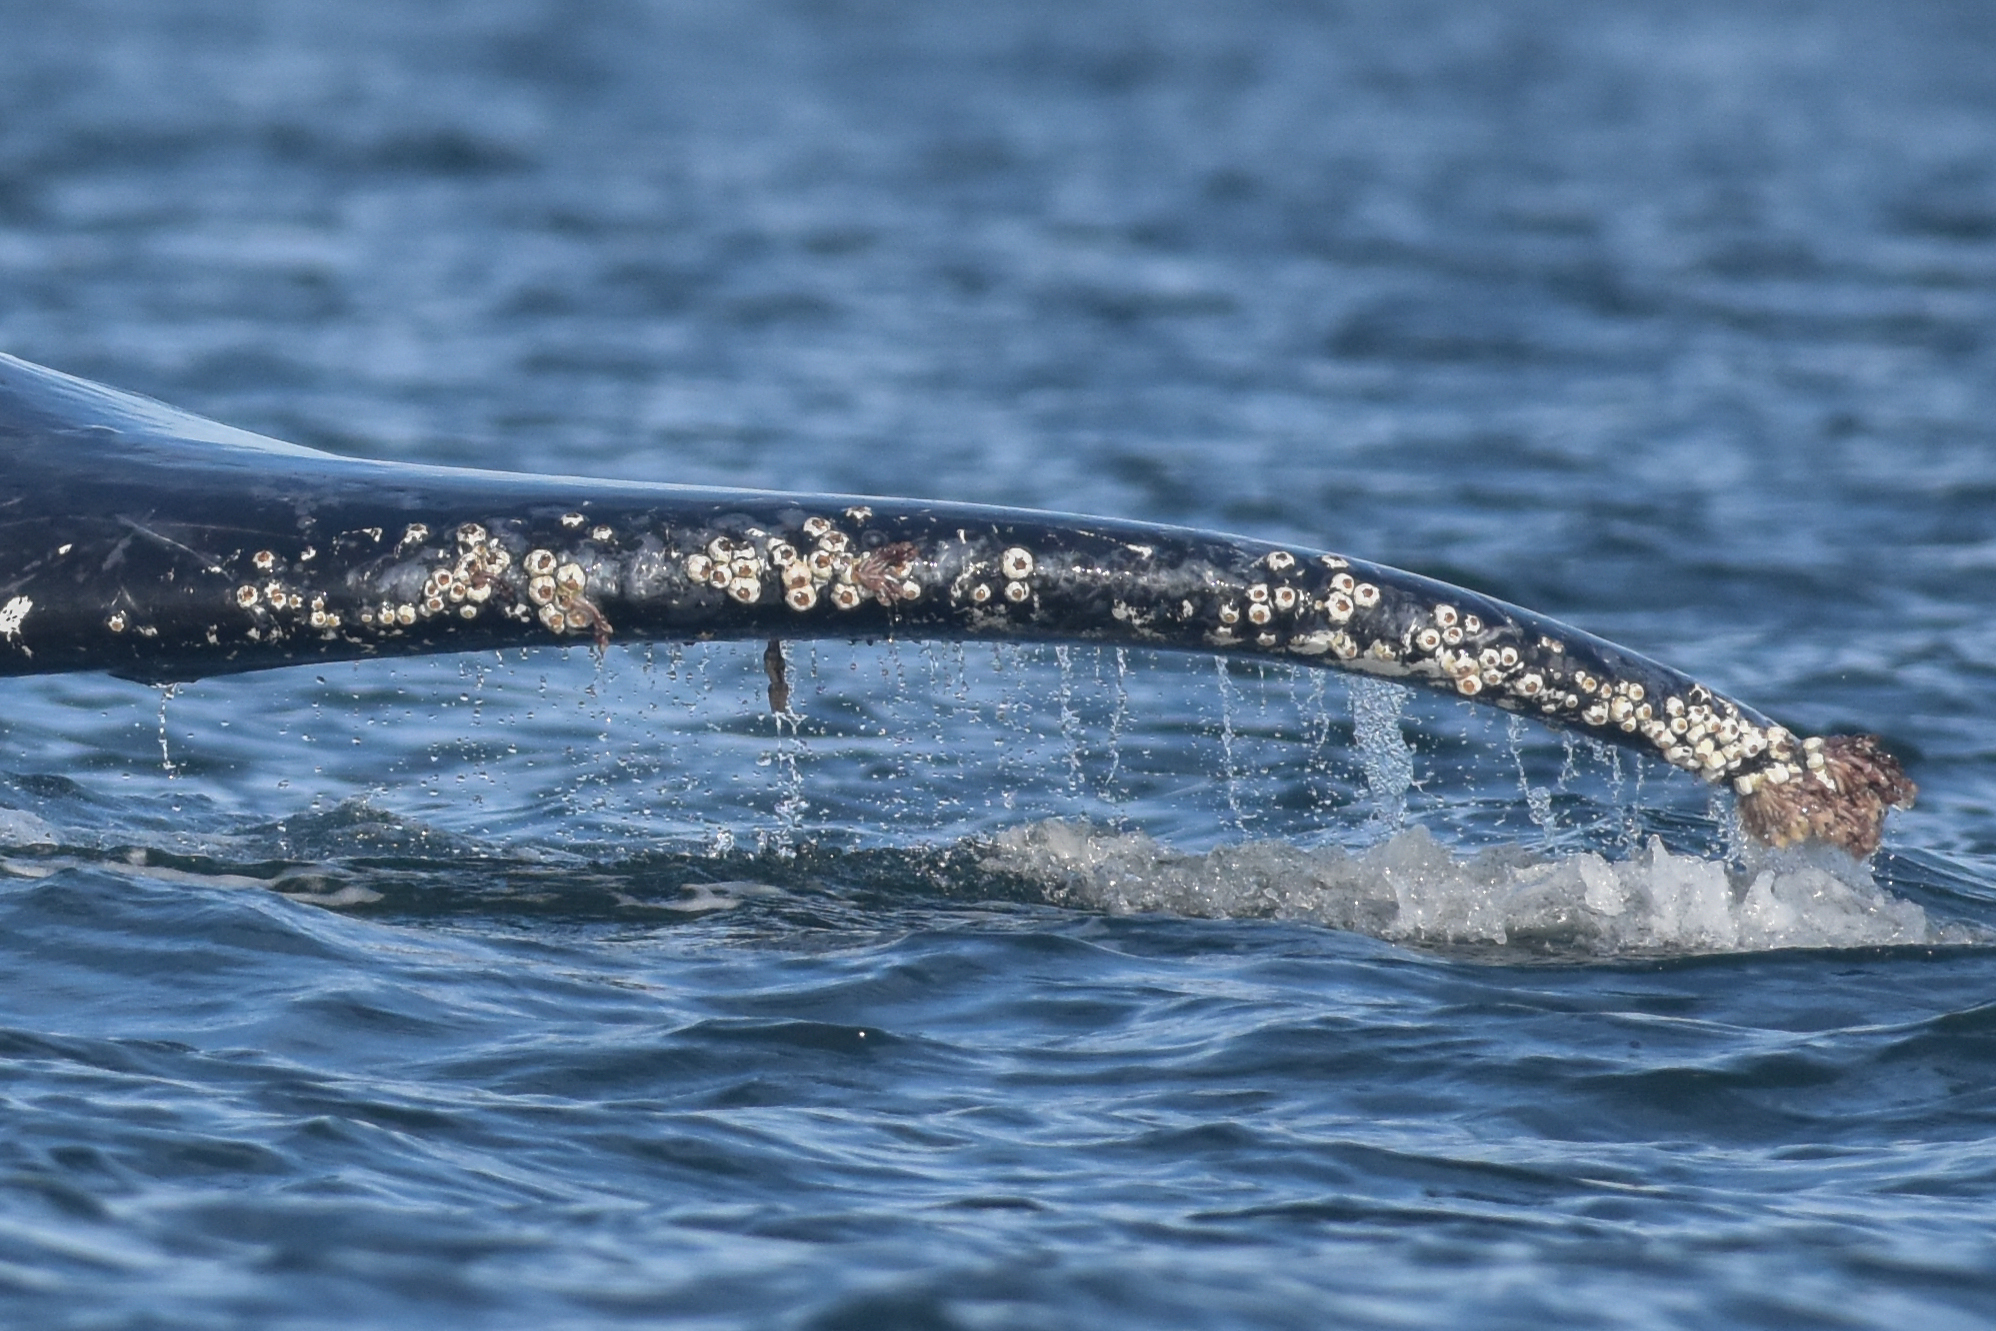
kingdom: Animalia
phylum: Arthropoda
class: Maxillopoda
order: Sessilia
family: Coronulidae
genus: Coronula
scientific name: Coronula diadema
